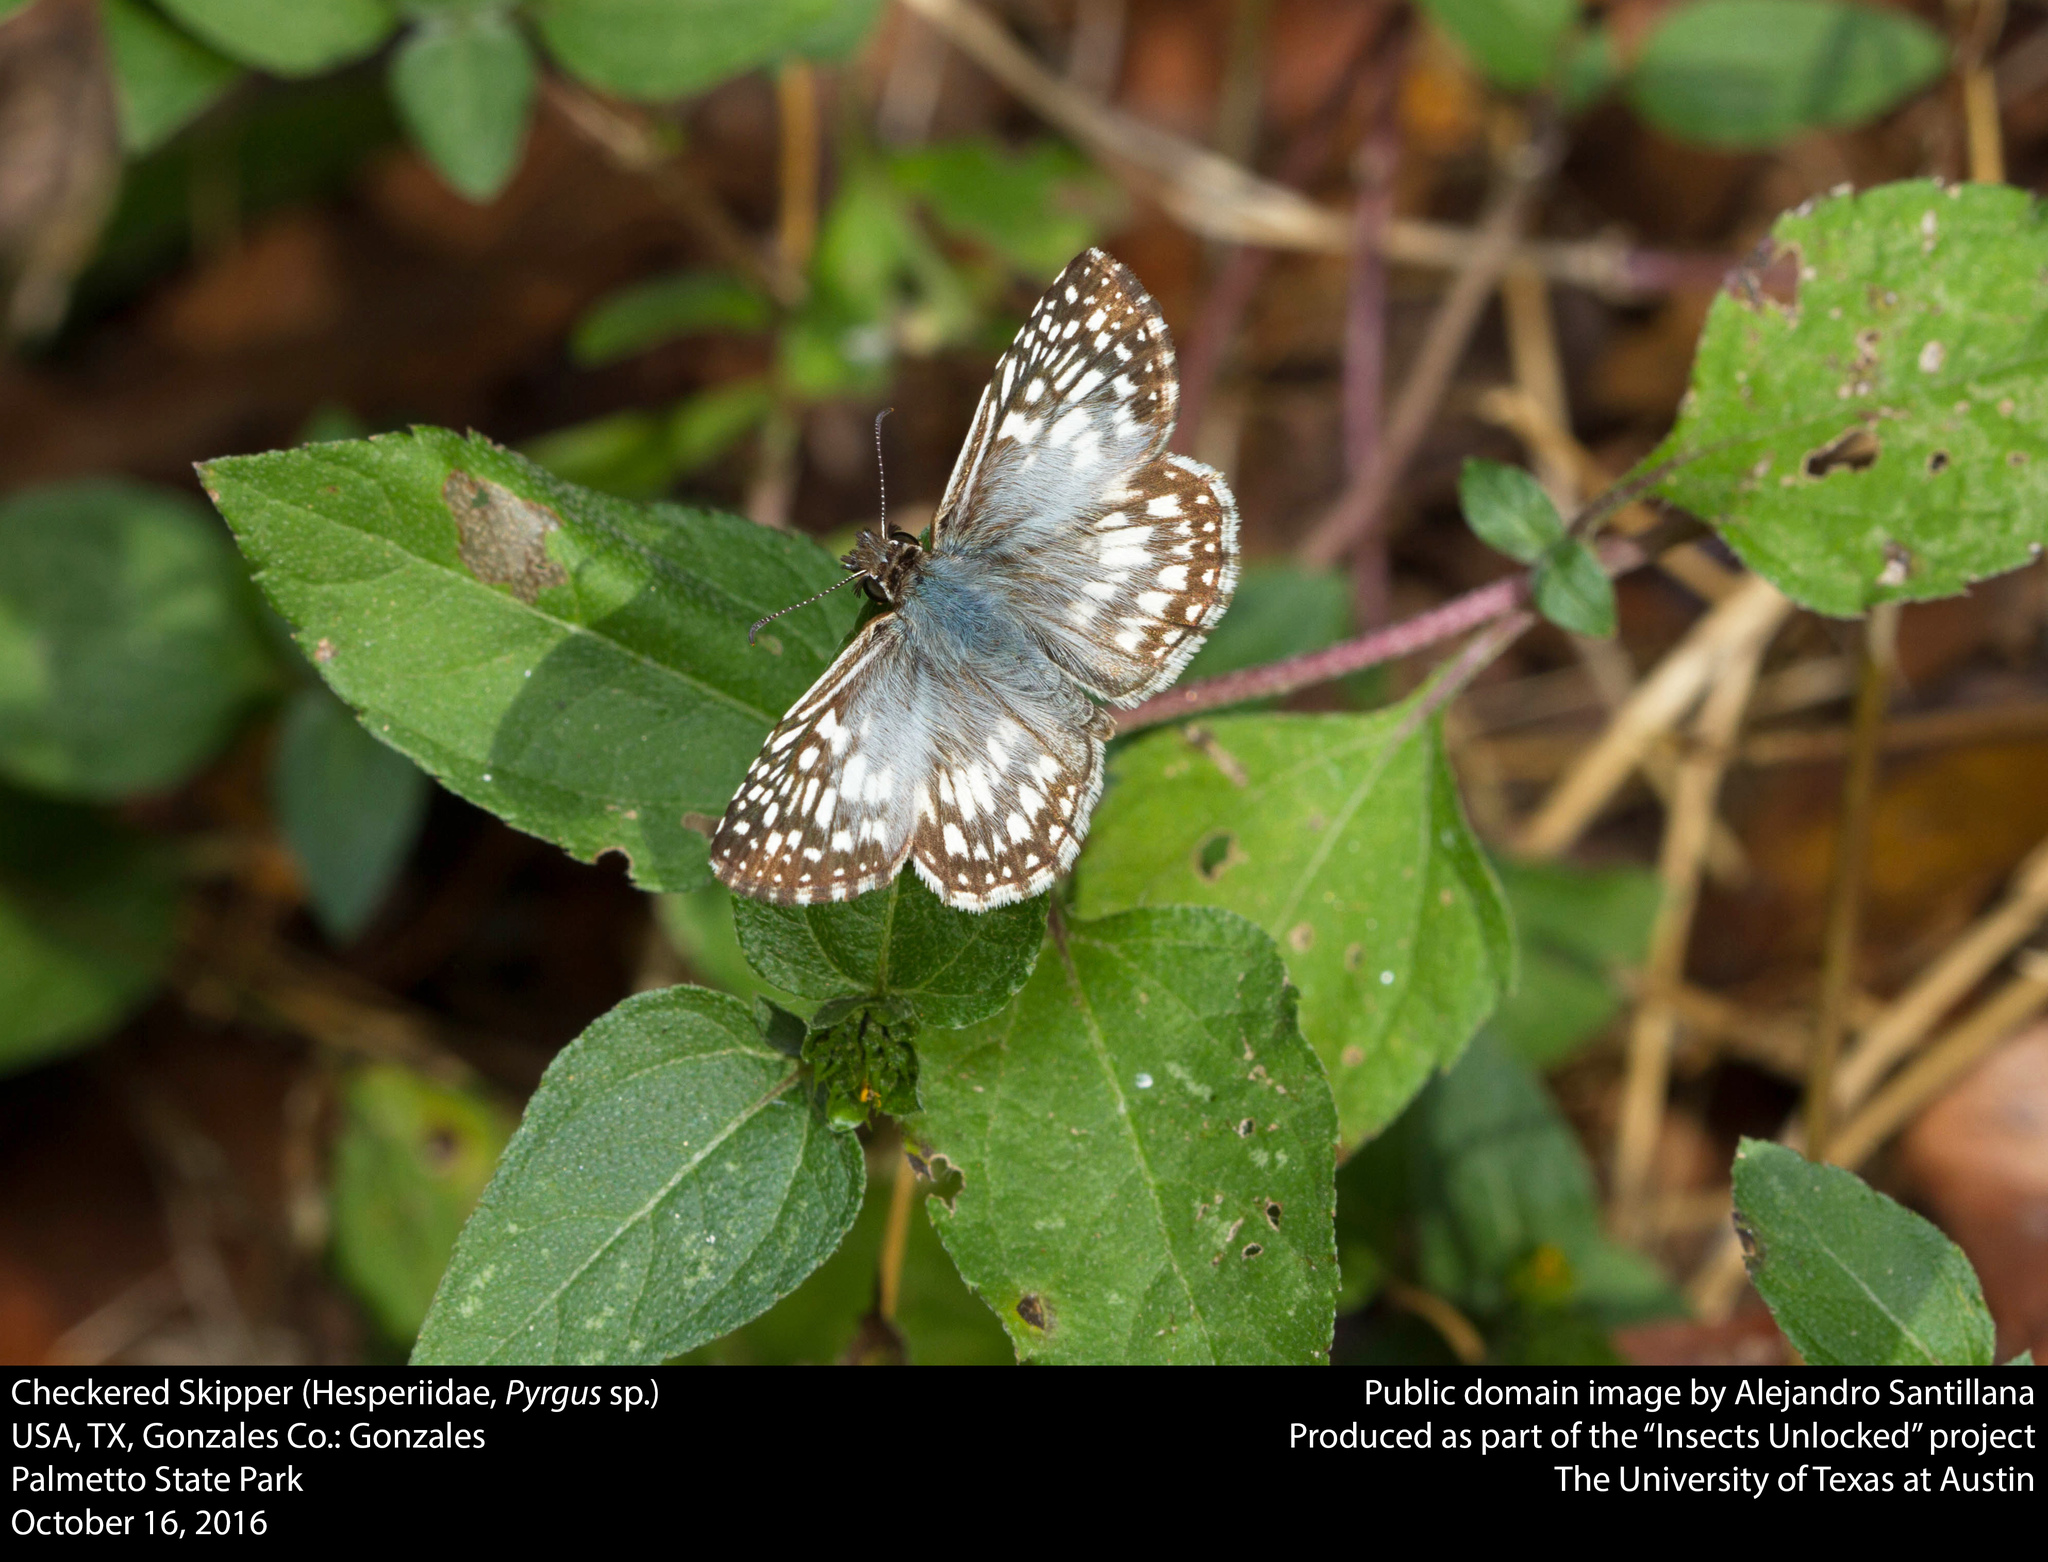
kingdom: Animalia
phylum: Arthropoda
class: Insecta
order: Lepidoptera
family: Hesperiidae
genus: Pyrgus
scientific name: Pyrgus oileus
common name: Tropical checkered-skipper
